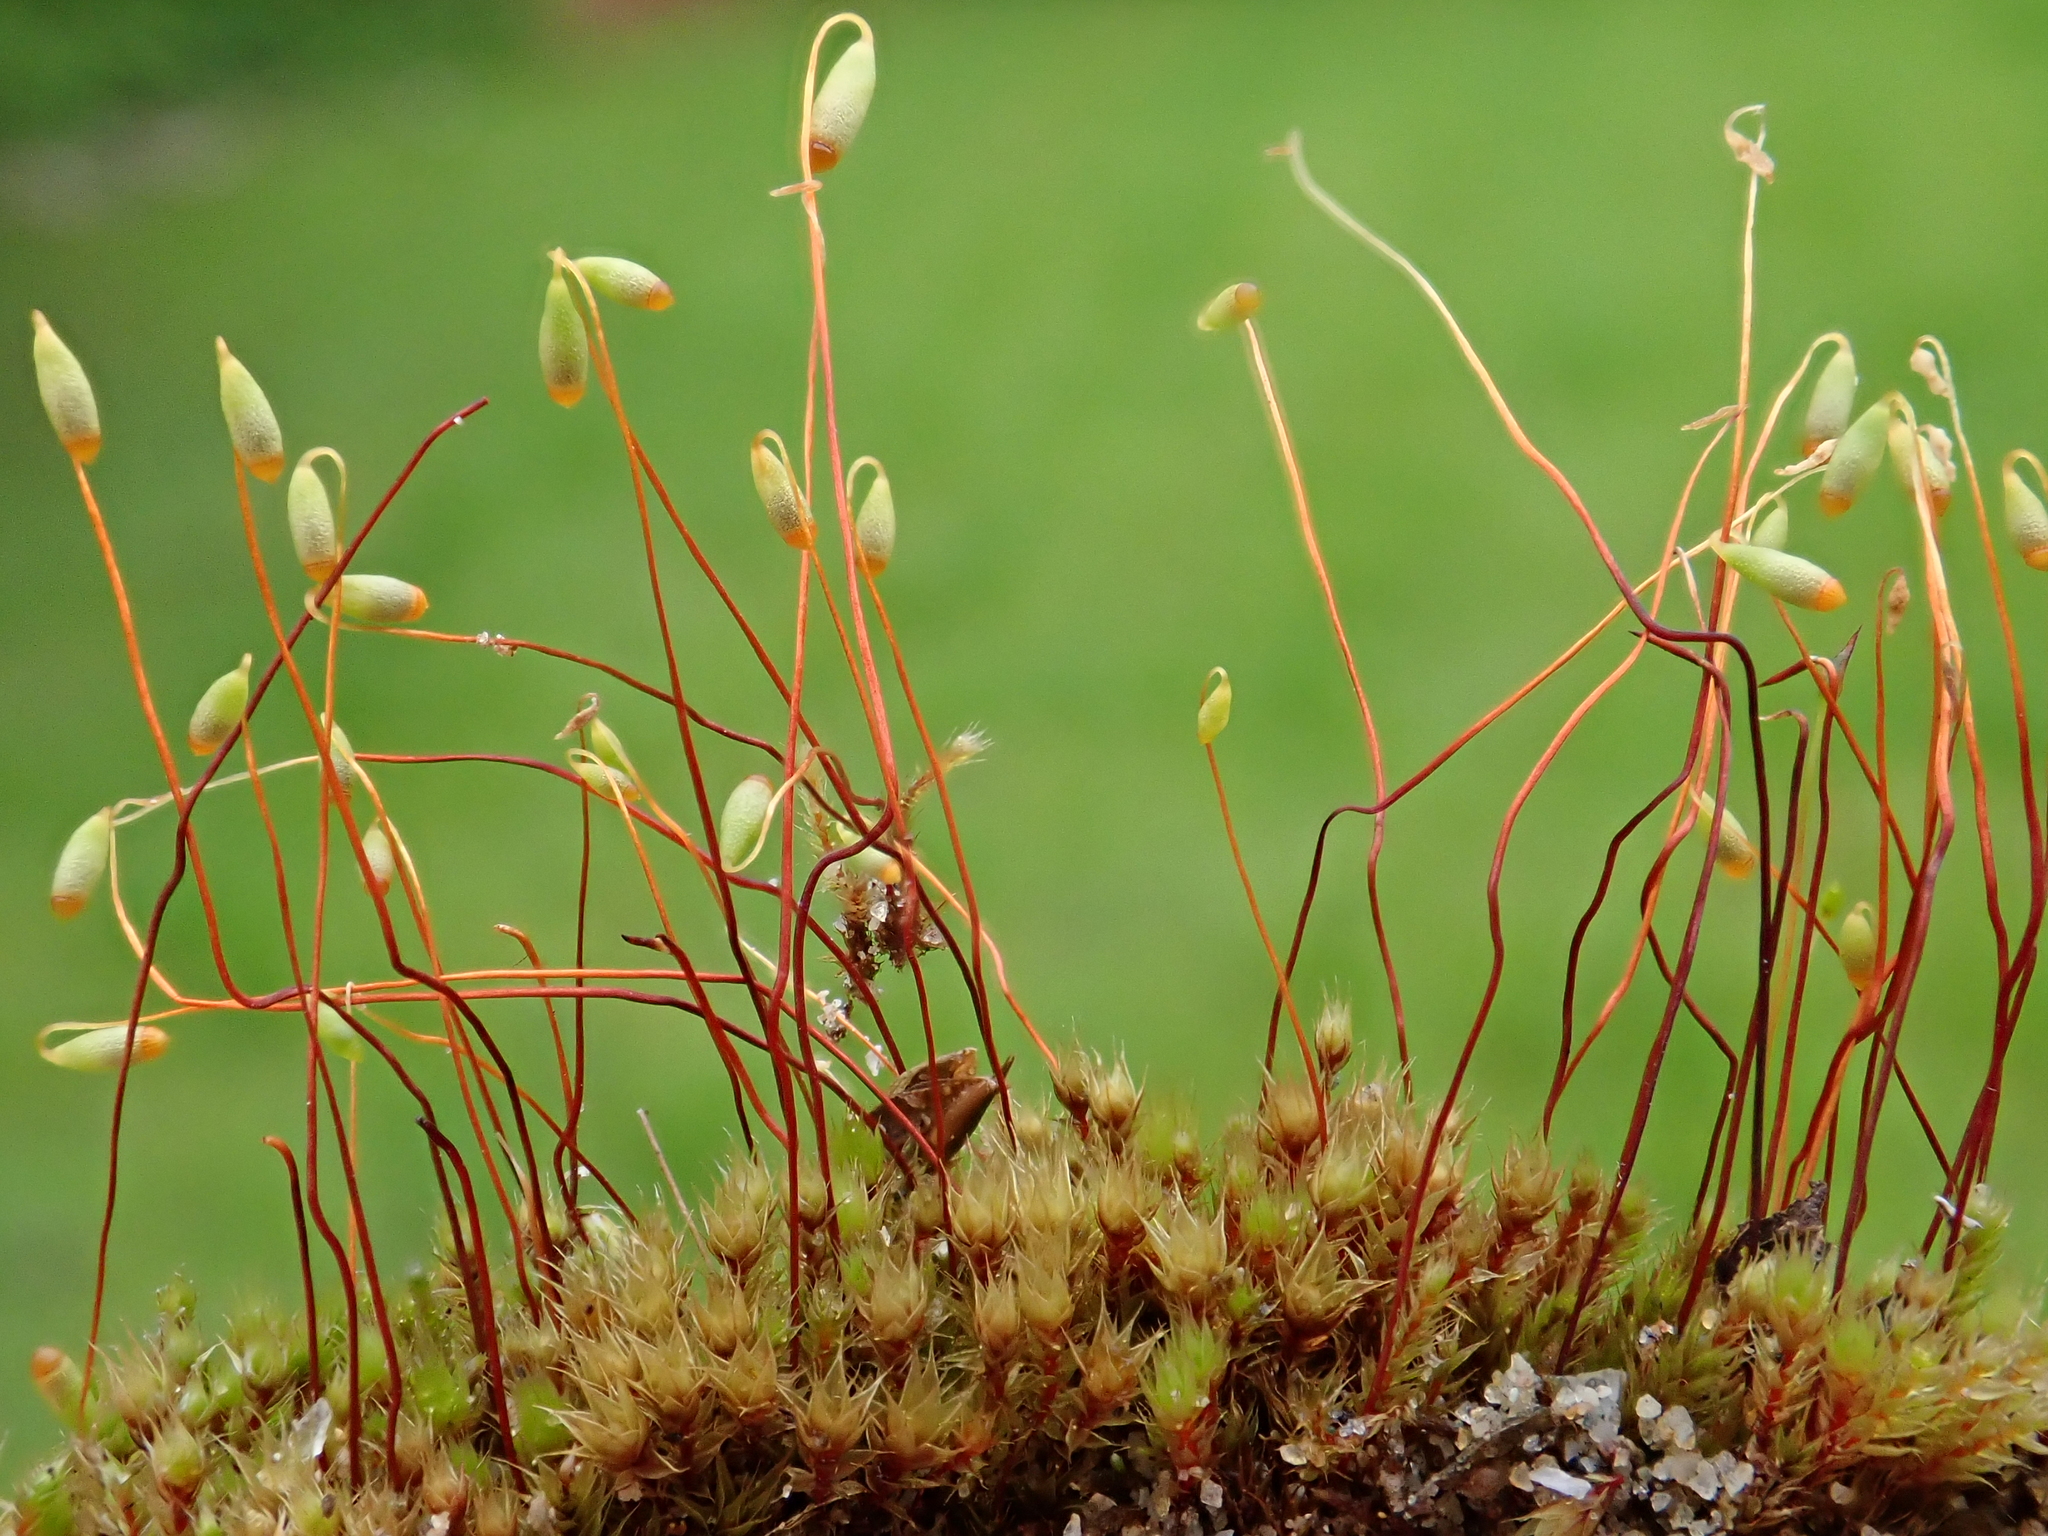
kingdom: Plantae
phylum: Bryophyta
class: Bryopsida
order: Bryales
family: Bryaceae
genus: Gemmabryum
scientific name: Gemmabryum caespiticium
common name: Handbell moss
